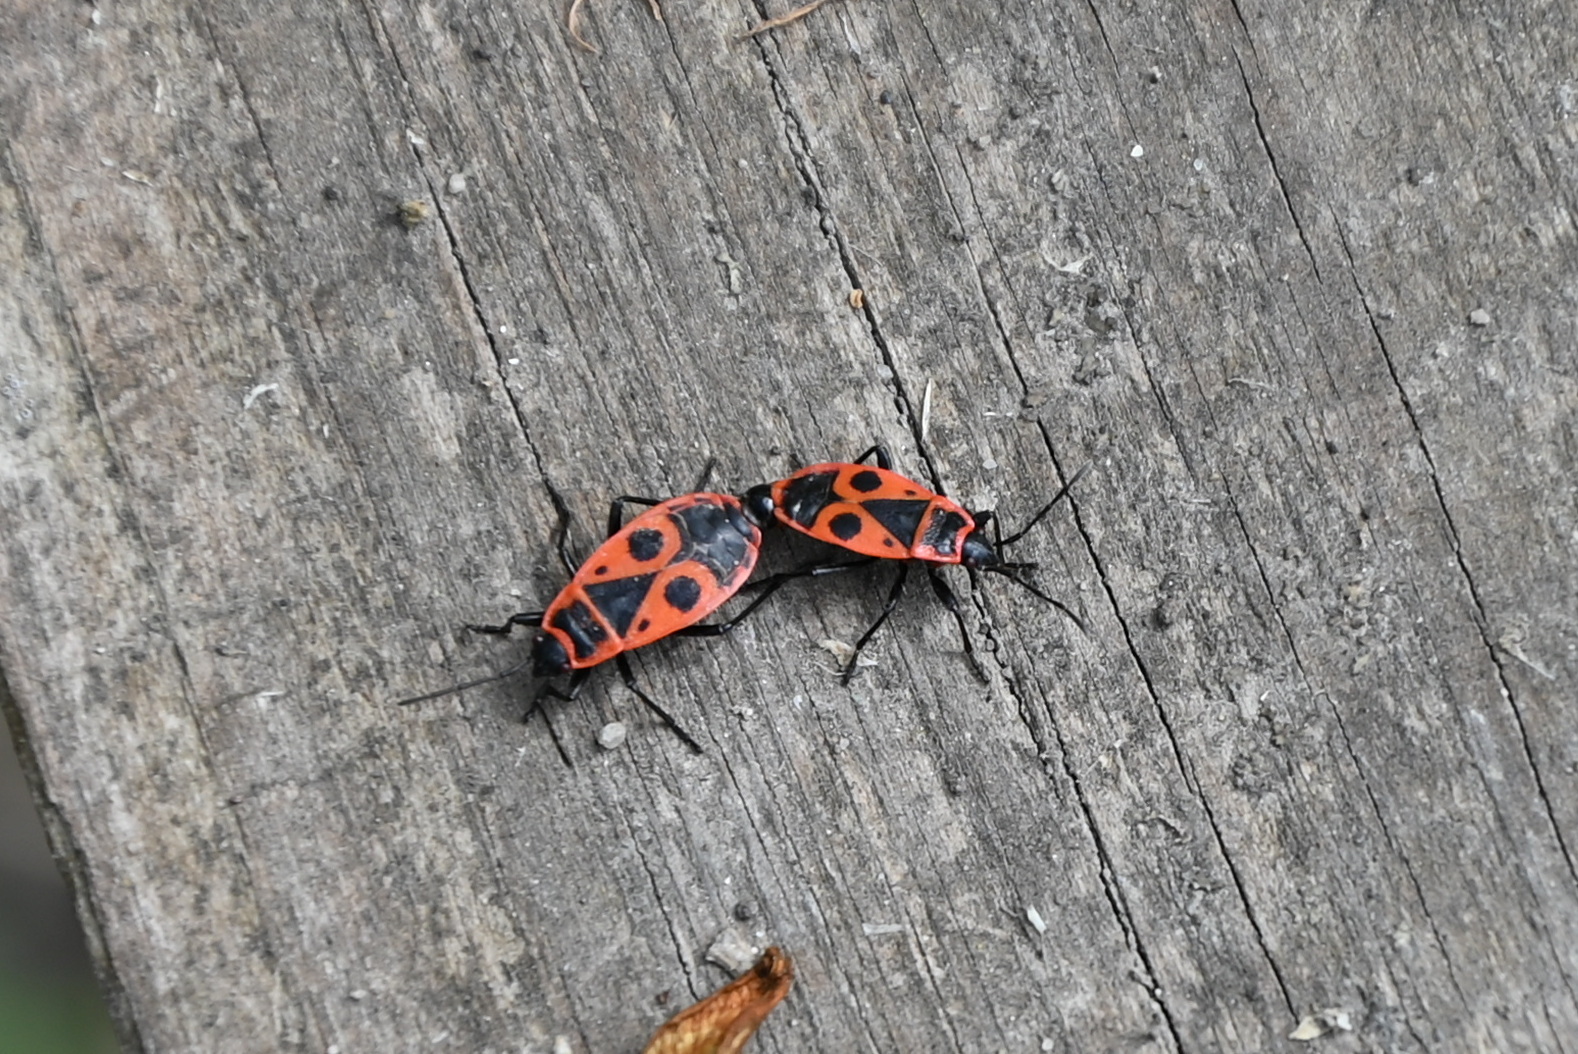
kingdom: Animalia
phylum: Arthropoda
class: Insecta
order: Hemiptera
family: Pyrrhocoridae
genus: Pyrrhocoris
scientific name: Pyrrhocoris apterus
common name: Firebug
